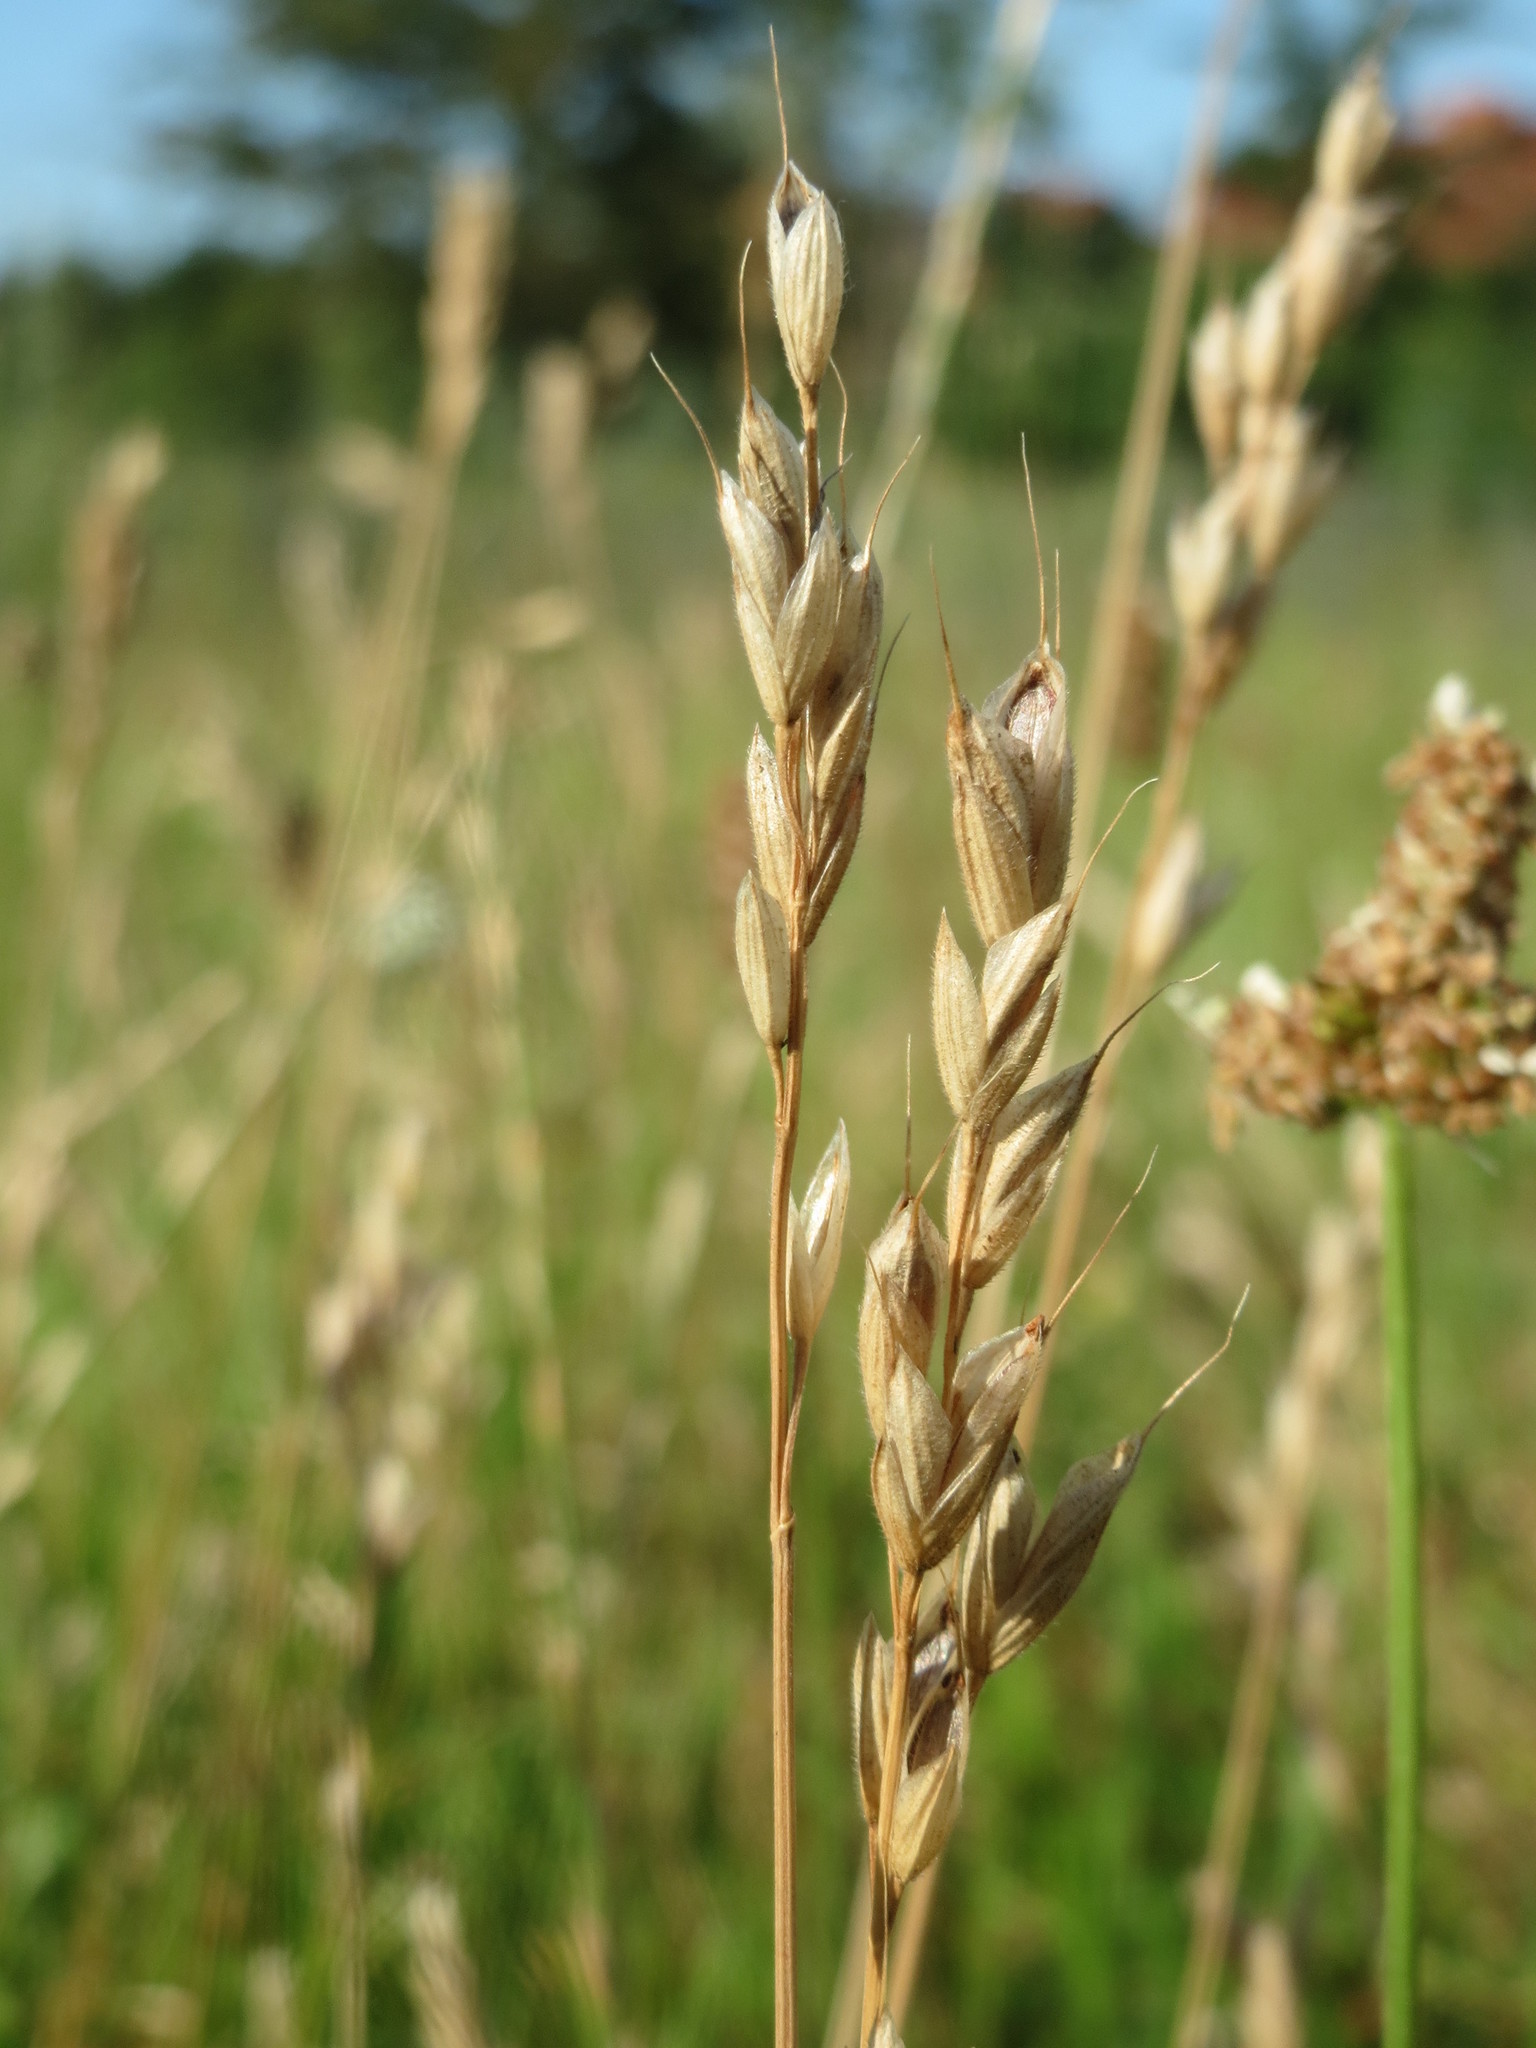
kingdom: Plantae
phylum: Tracheophyta
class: Liliopsida
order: Poales
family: Poaceae
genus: Bromus
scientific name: Bromus hordeaceus
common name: Soft brome
